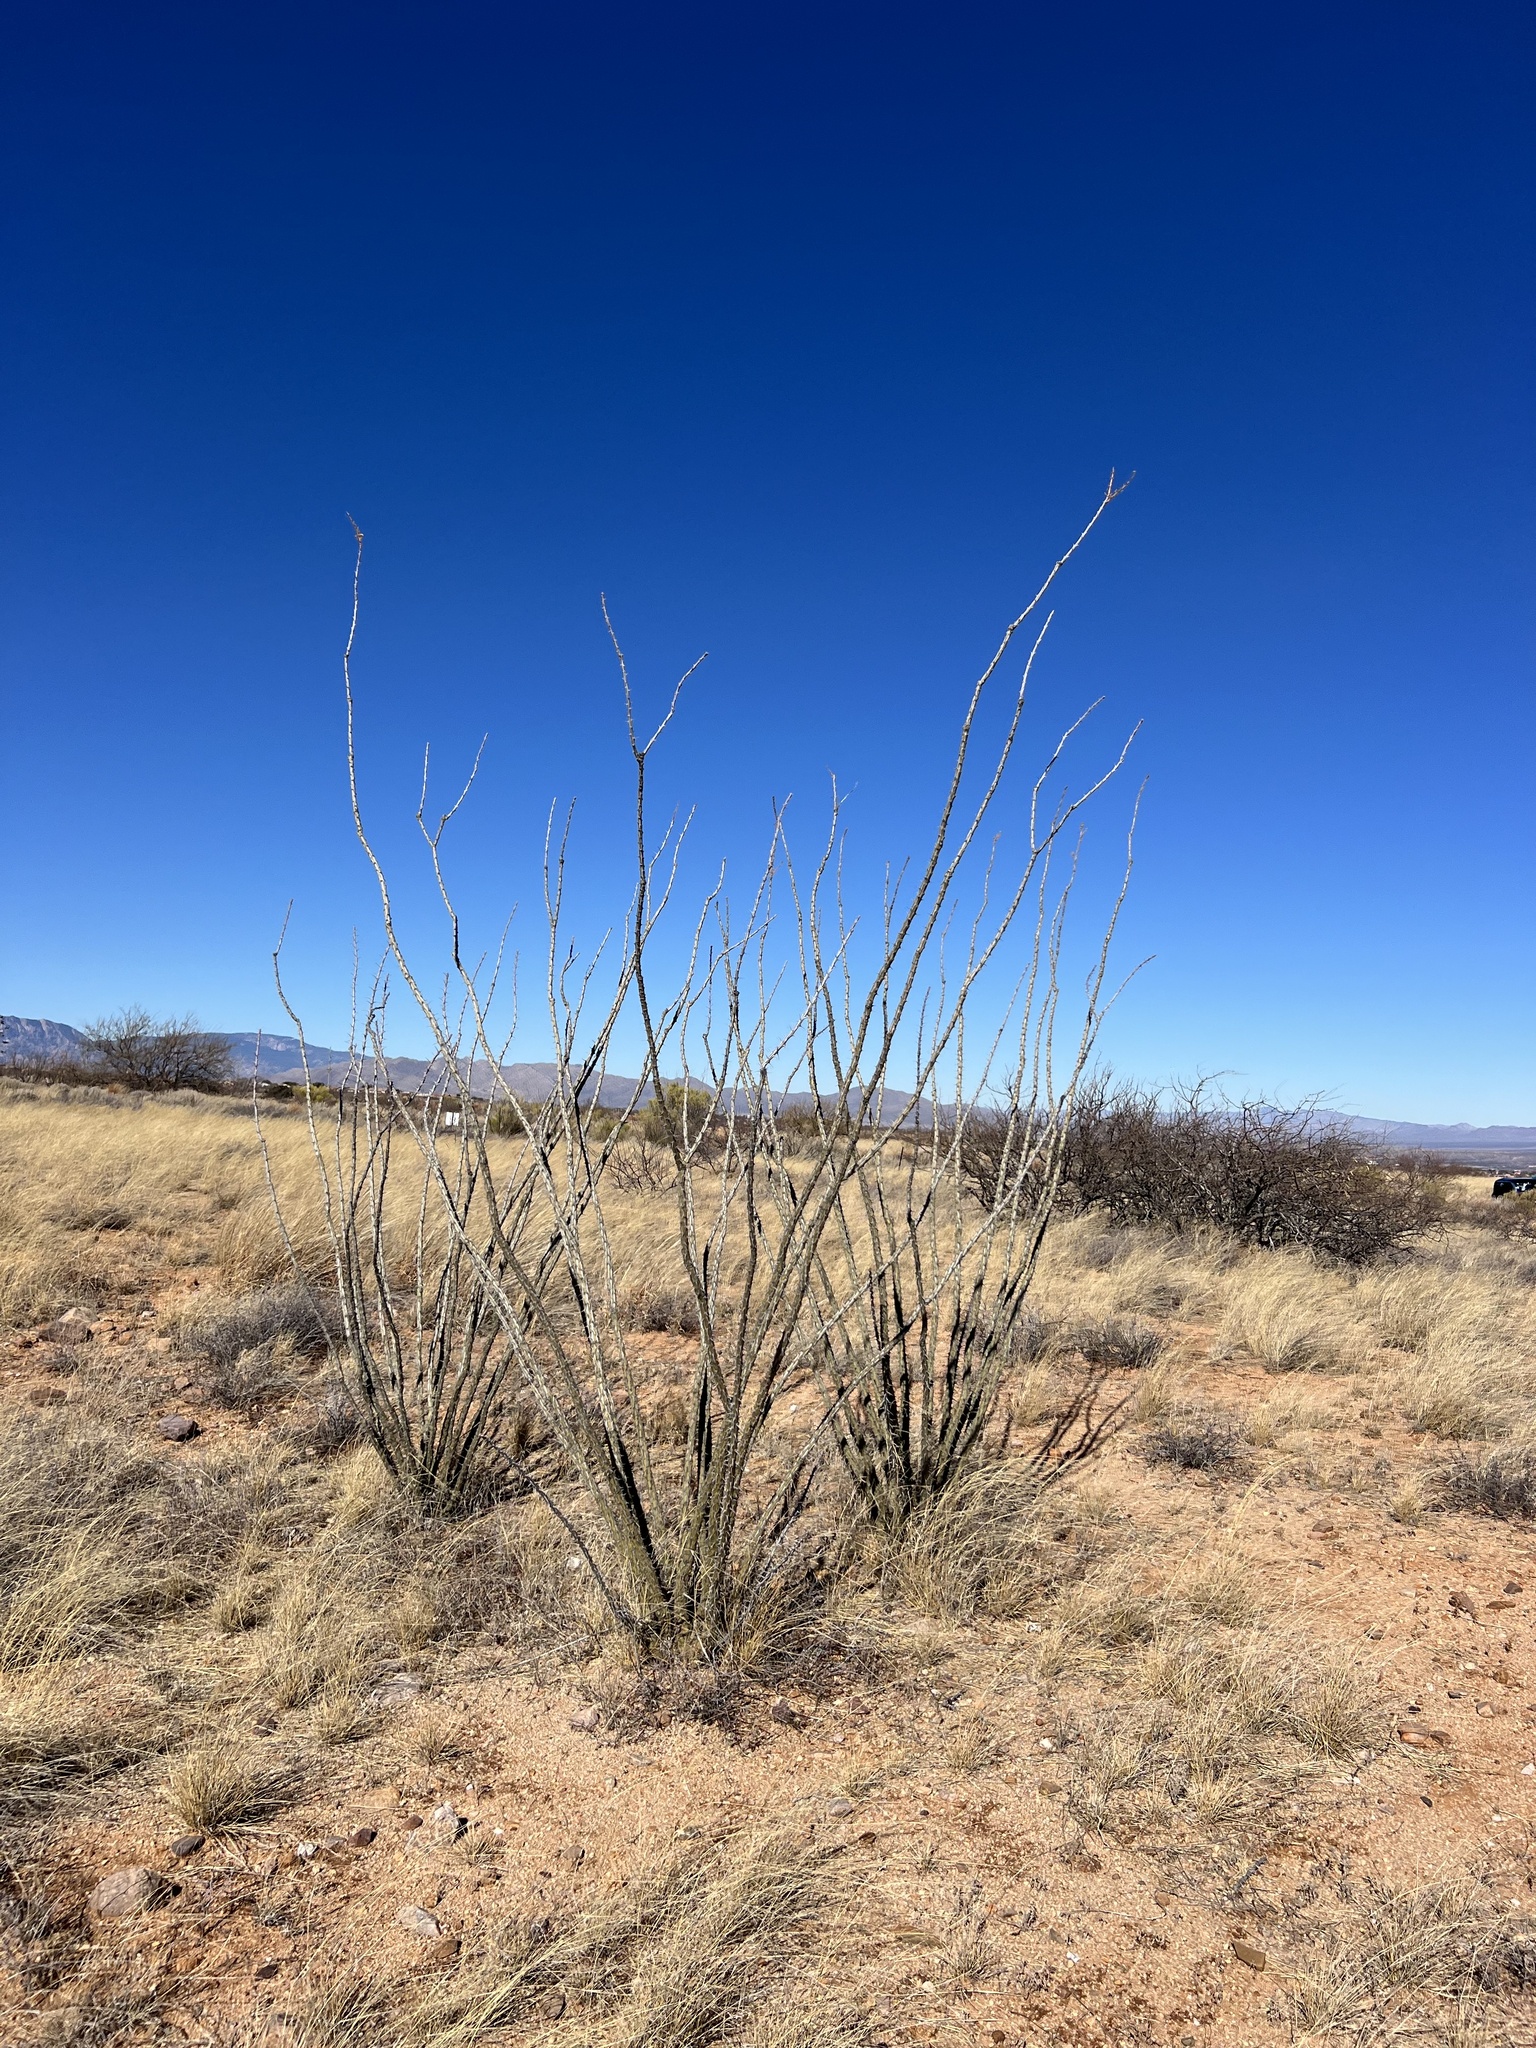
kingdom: Plantae
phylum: Tracheophyta
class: Magnoliopsida
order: Ericales
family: Fouquieriaceae
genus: Fouquieria
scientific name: Fouquieria splendens
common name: Vine-cactus
